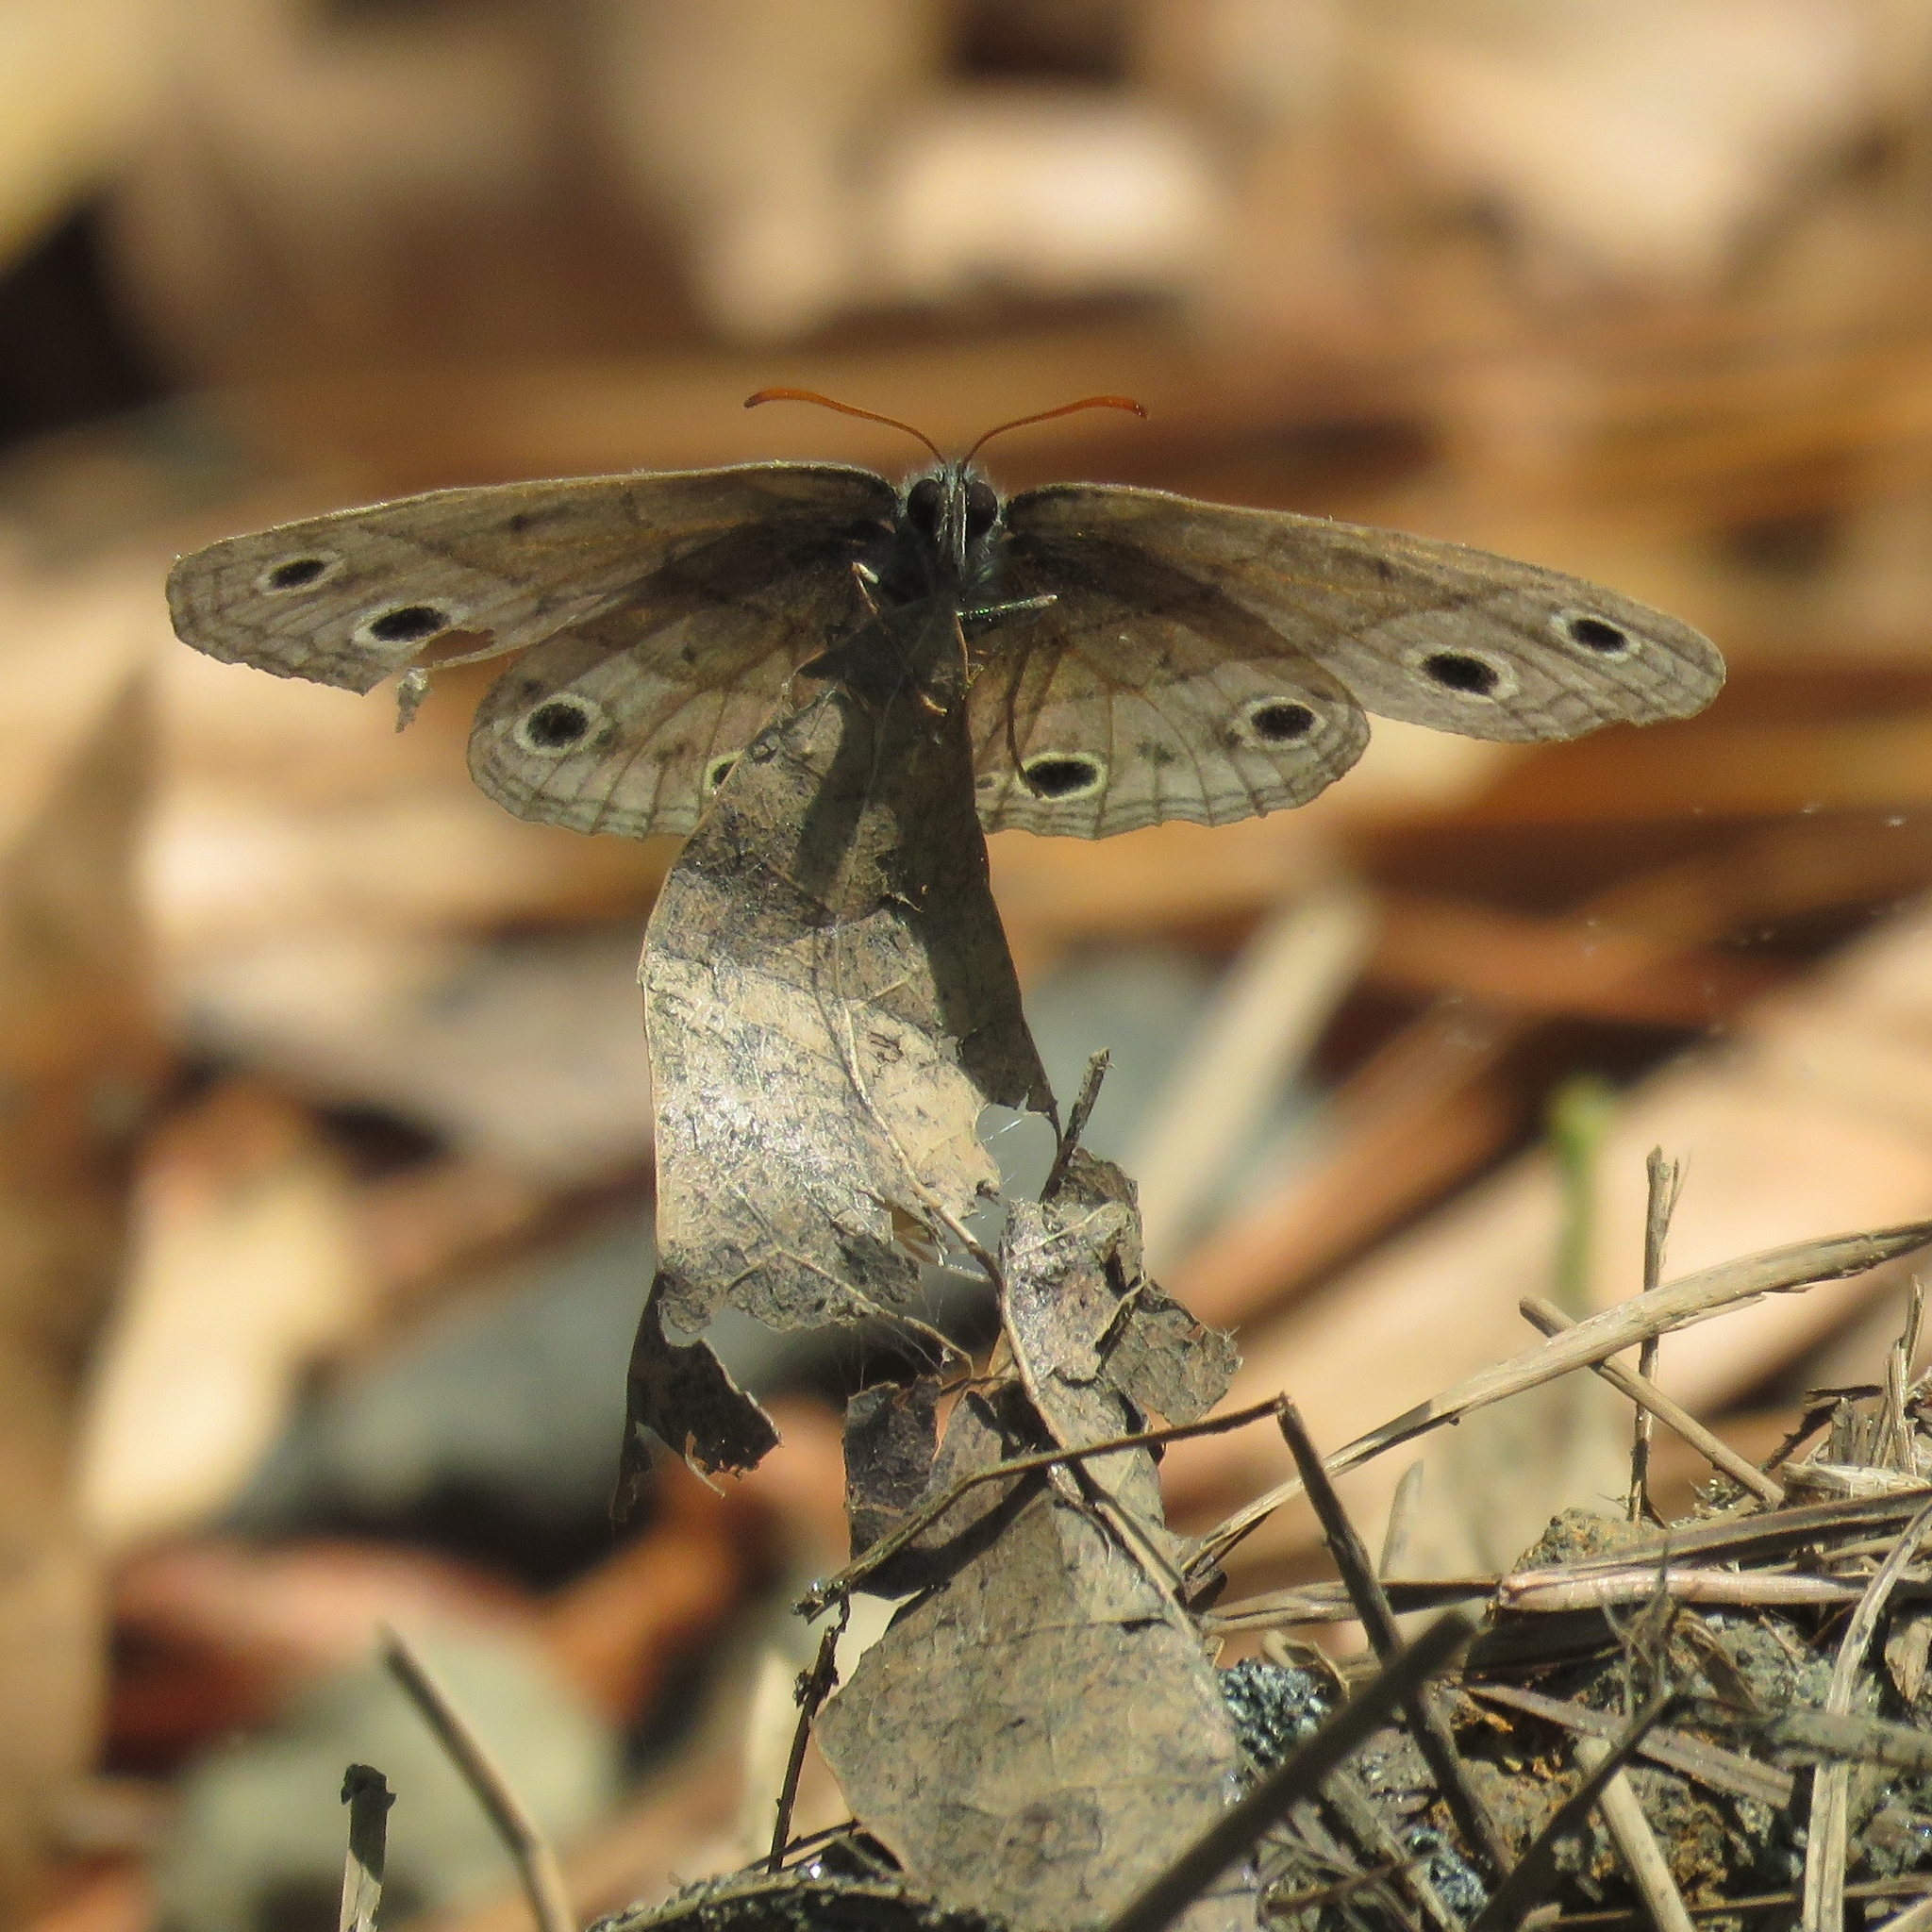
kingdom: Animalia
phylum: Arthropoda
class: Insecta
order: Lepidoptera
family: Nymphalidae
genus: Euptychia
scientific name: Euptychia cymela
